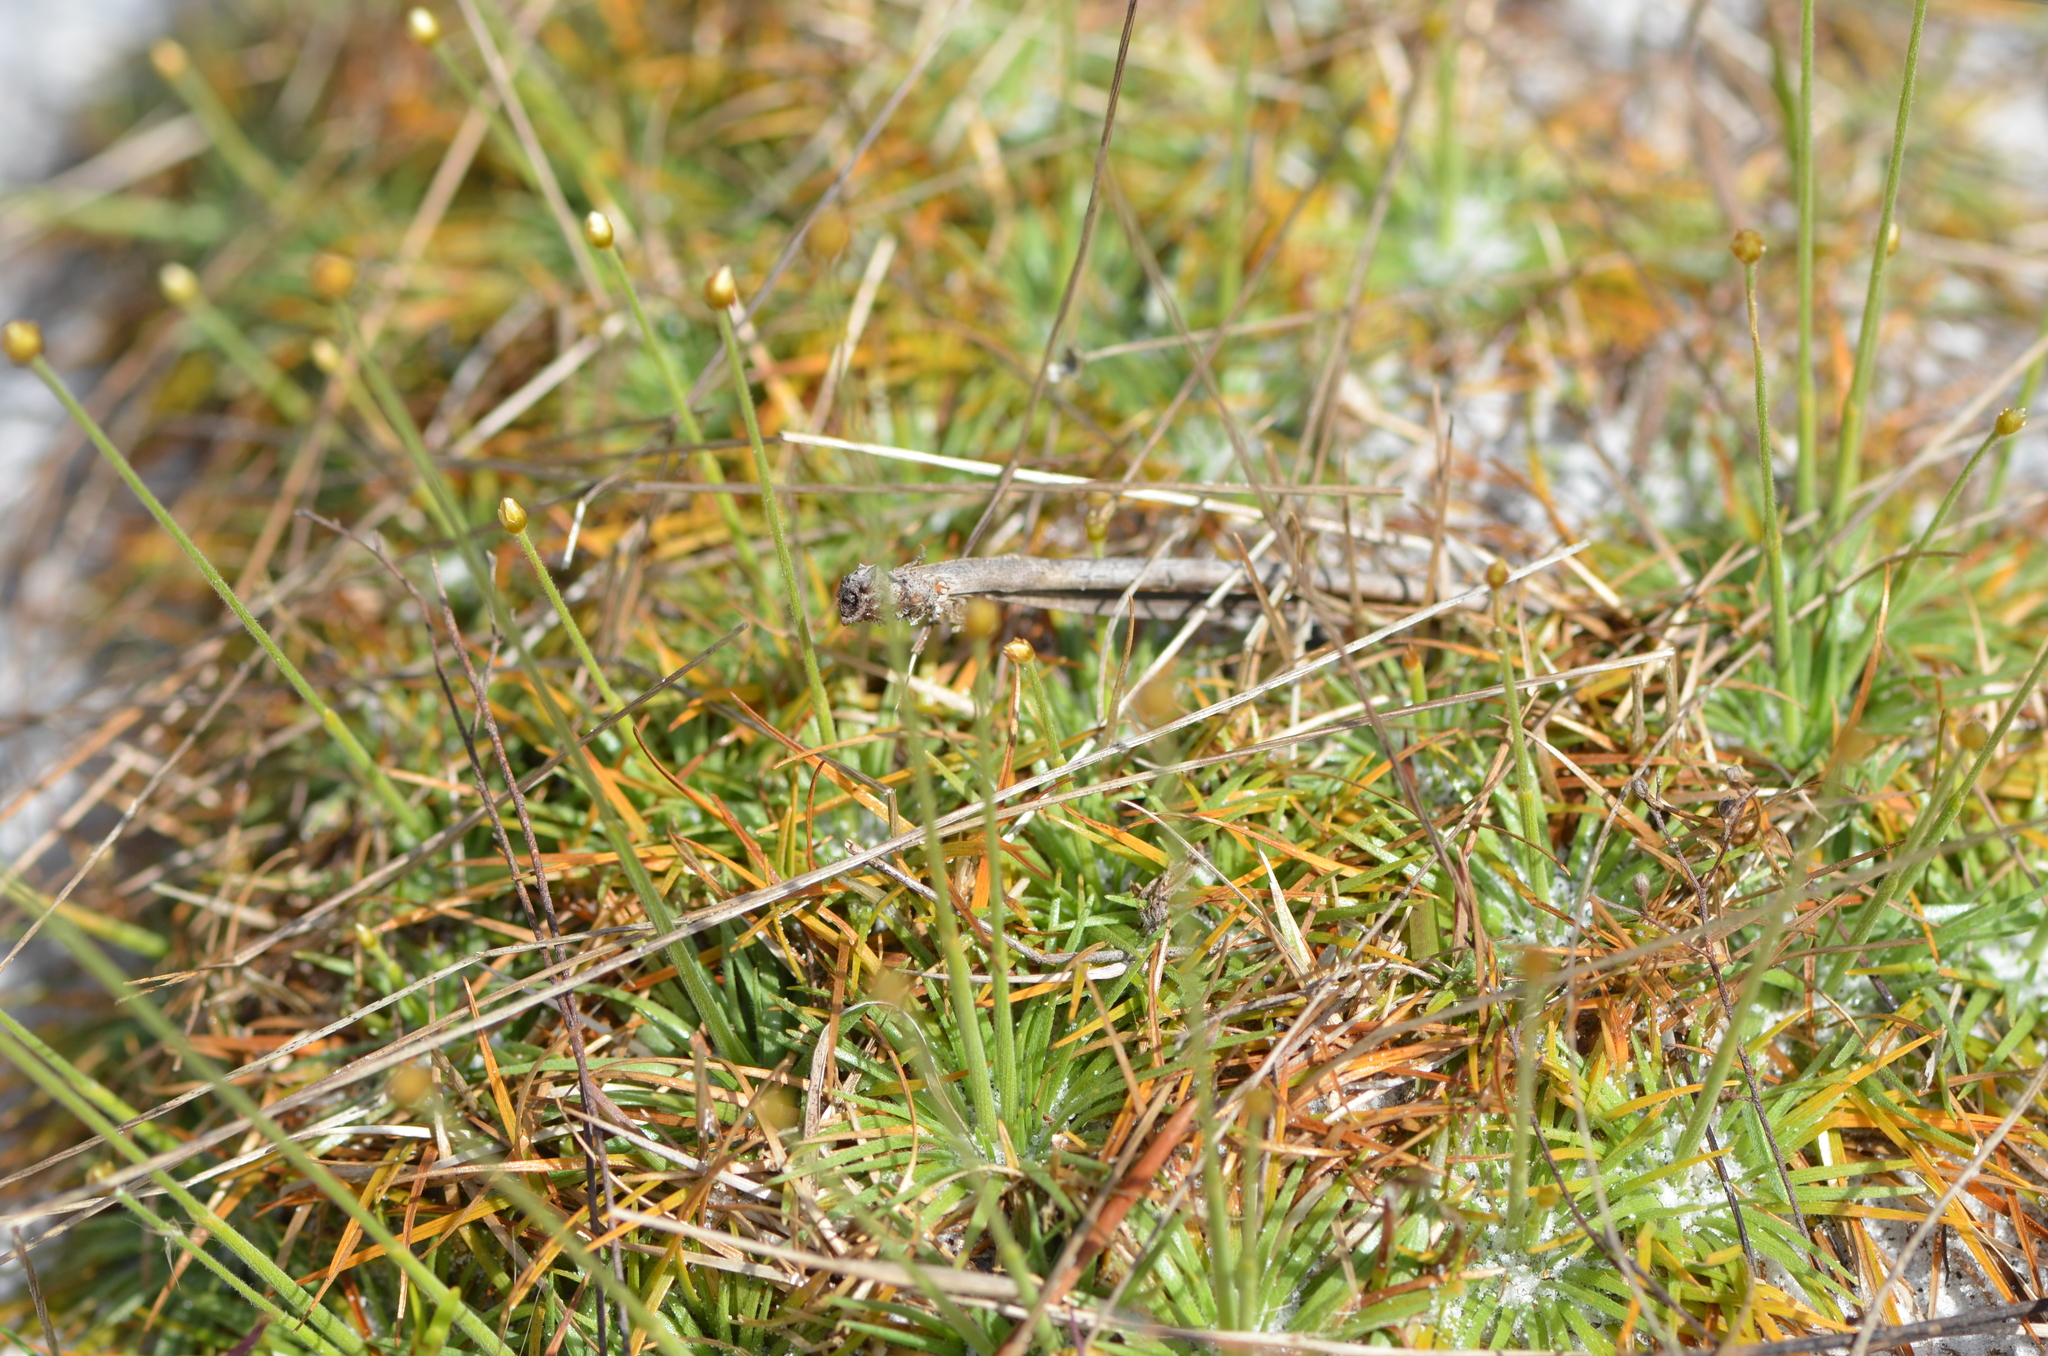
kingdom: Plantae
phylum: Tracheophyta
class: Liliopsida
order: Poales
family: Eriocaulaceae
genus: Syngonanthus
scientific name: Syngonanthus flavidulus
